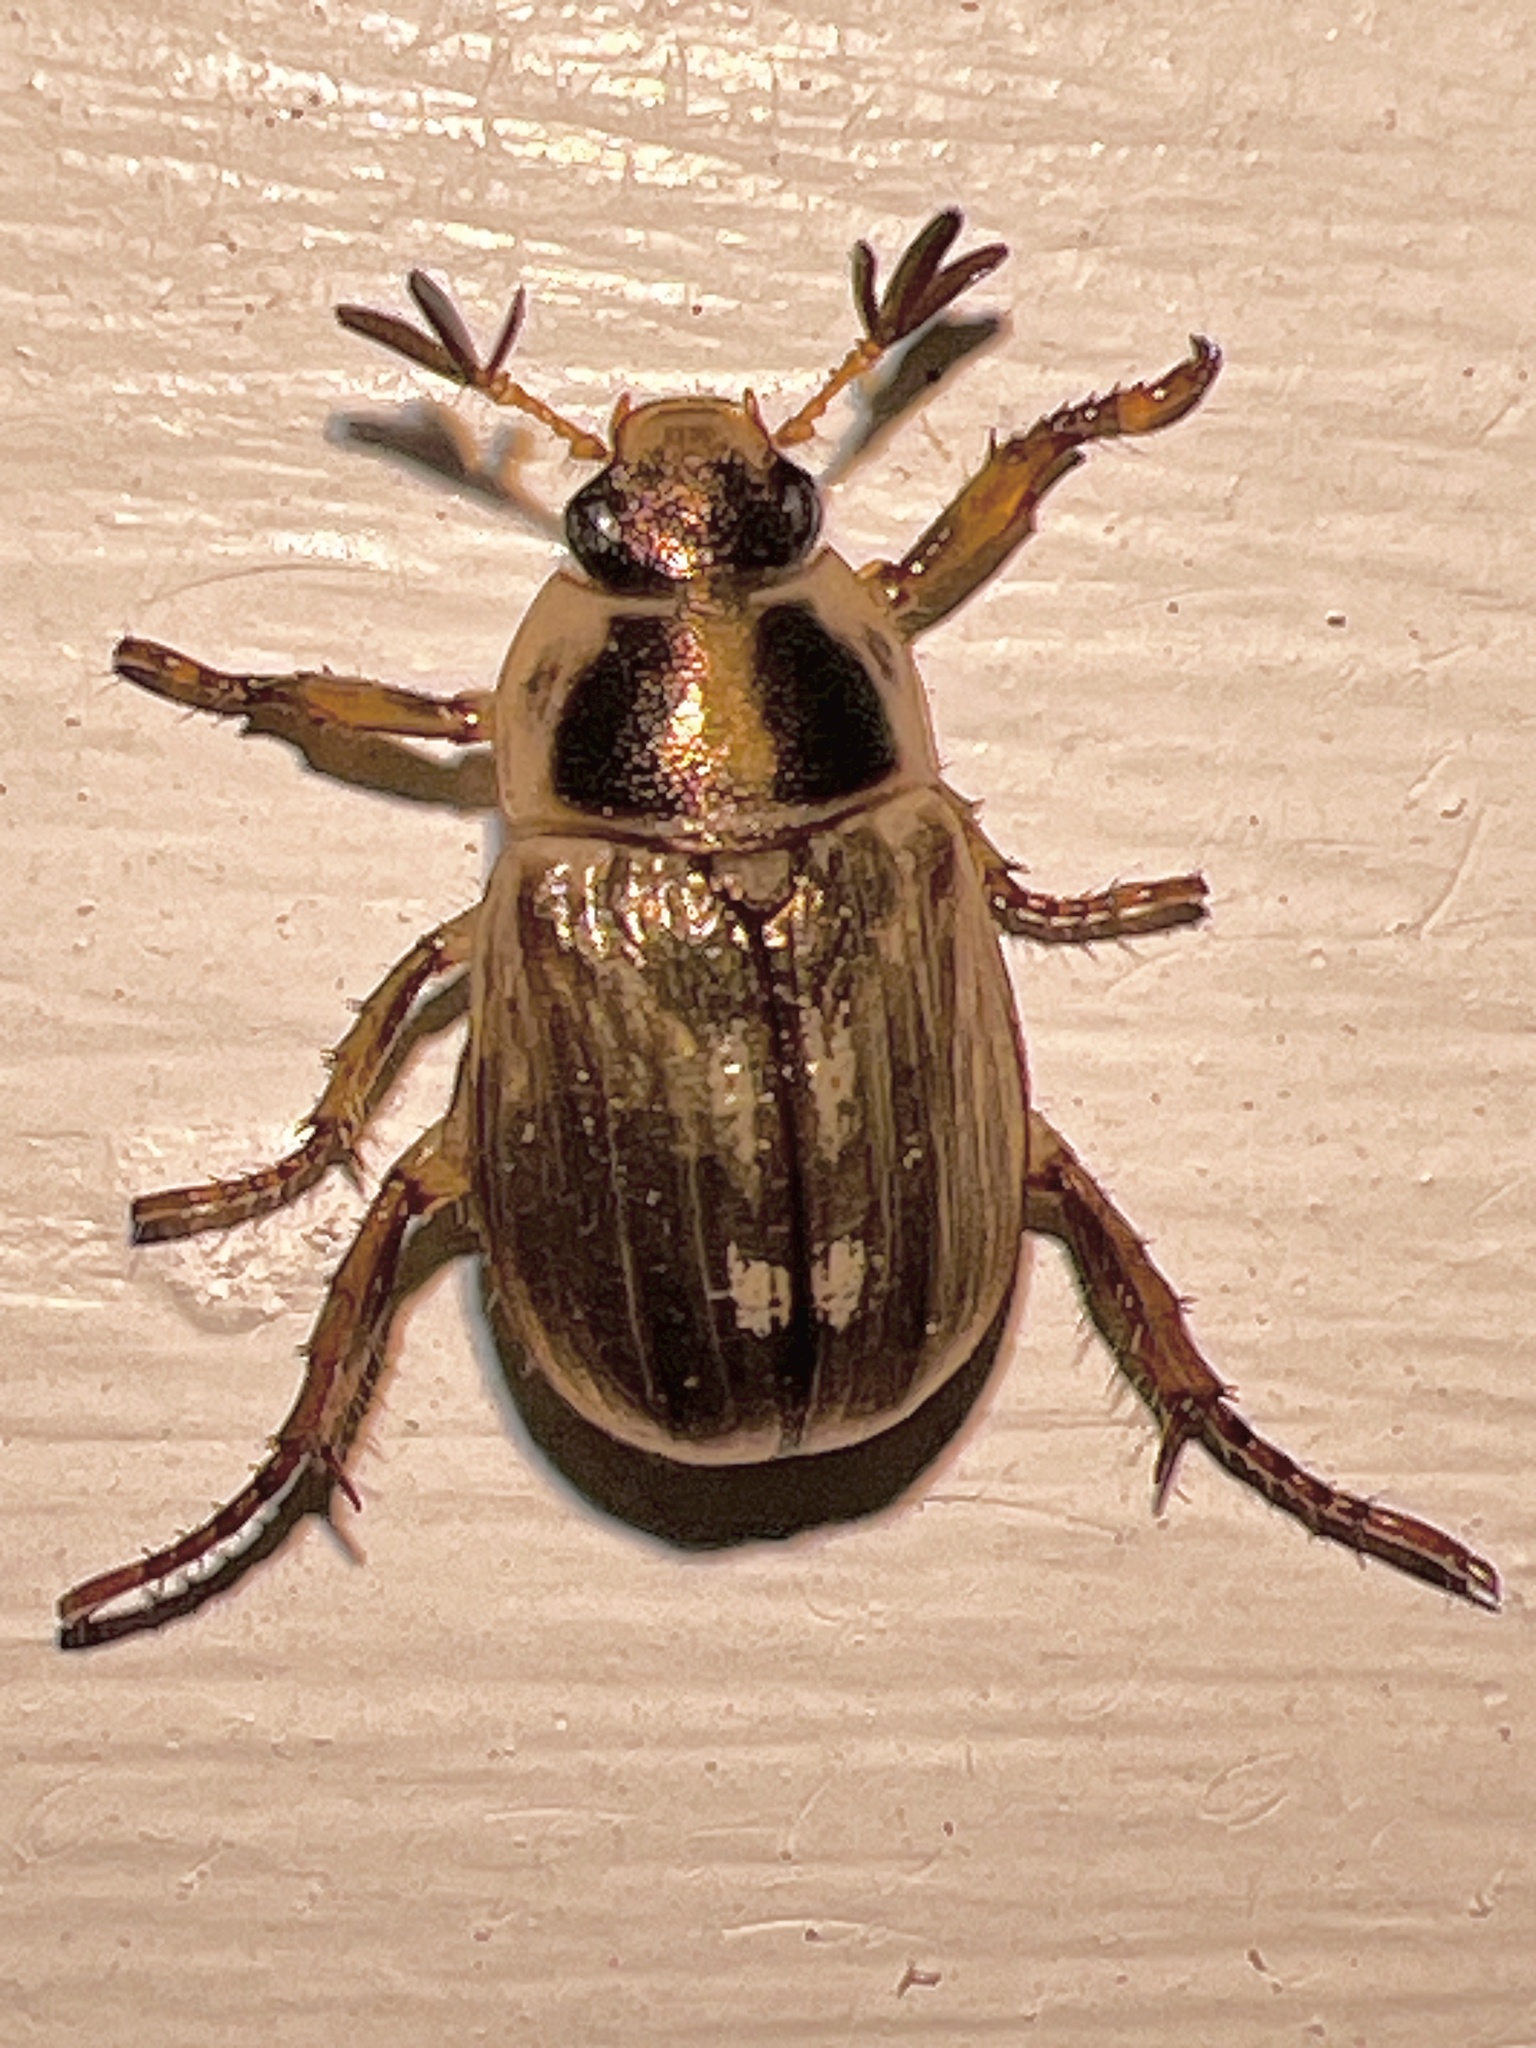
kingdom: Animalia
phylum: Arthropoda
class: Insecta
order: Coleoptera
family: Scarabaeidae
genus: Exomala
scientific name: Exomala orientalis
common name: Oriental beetle
